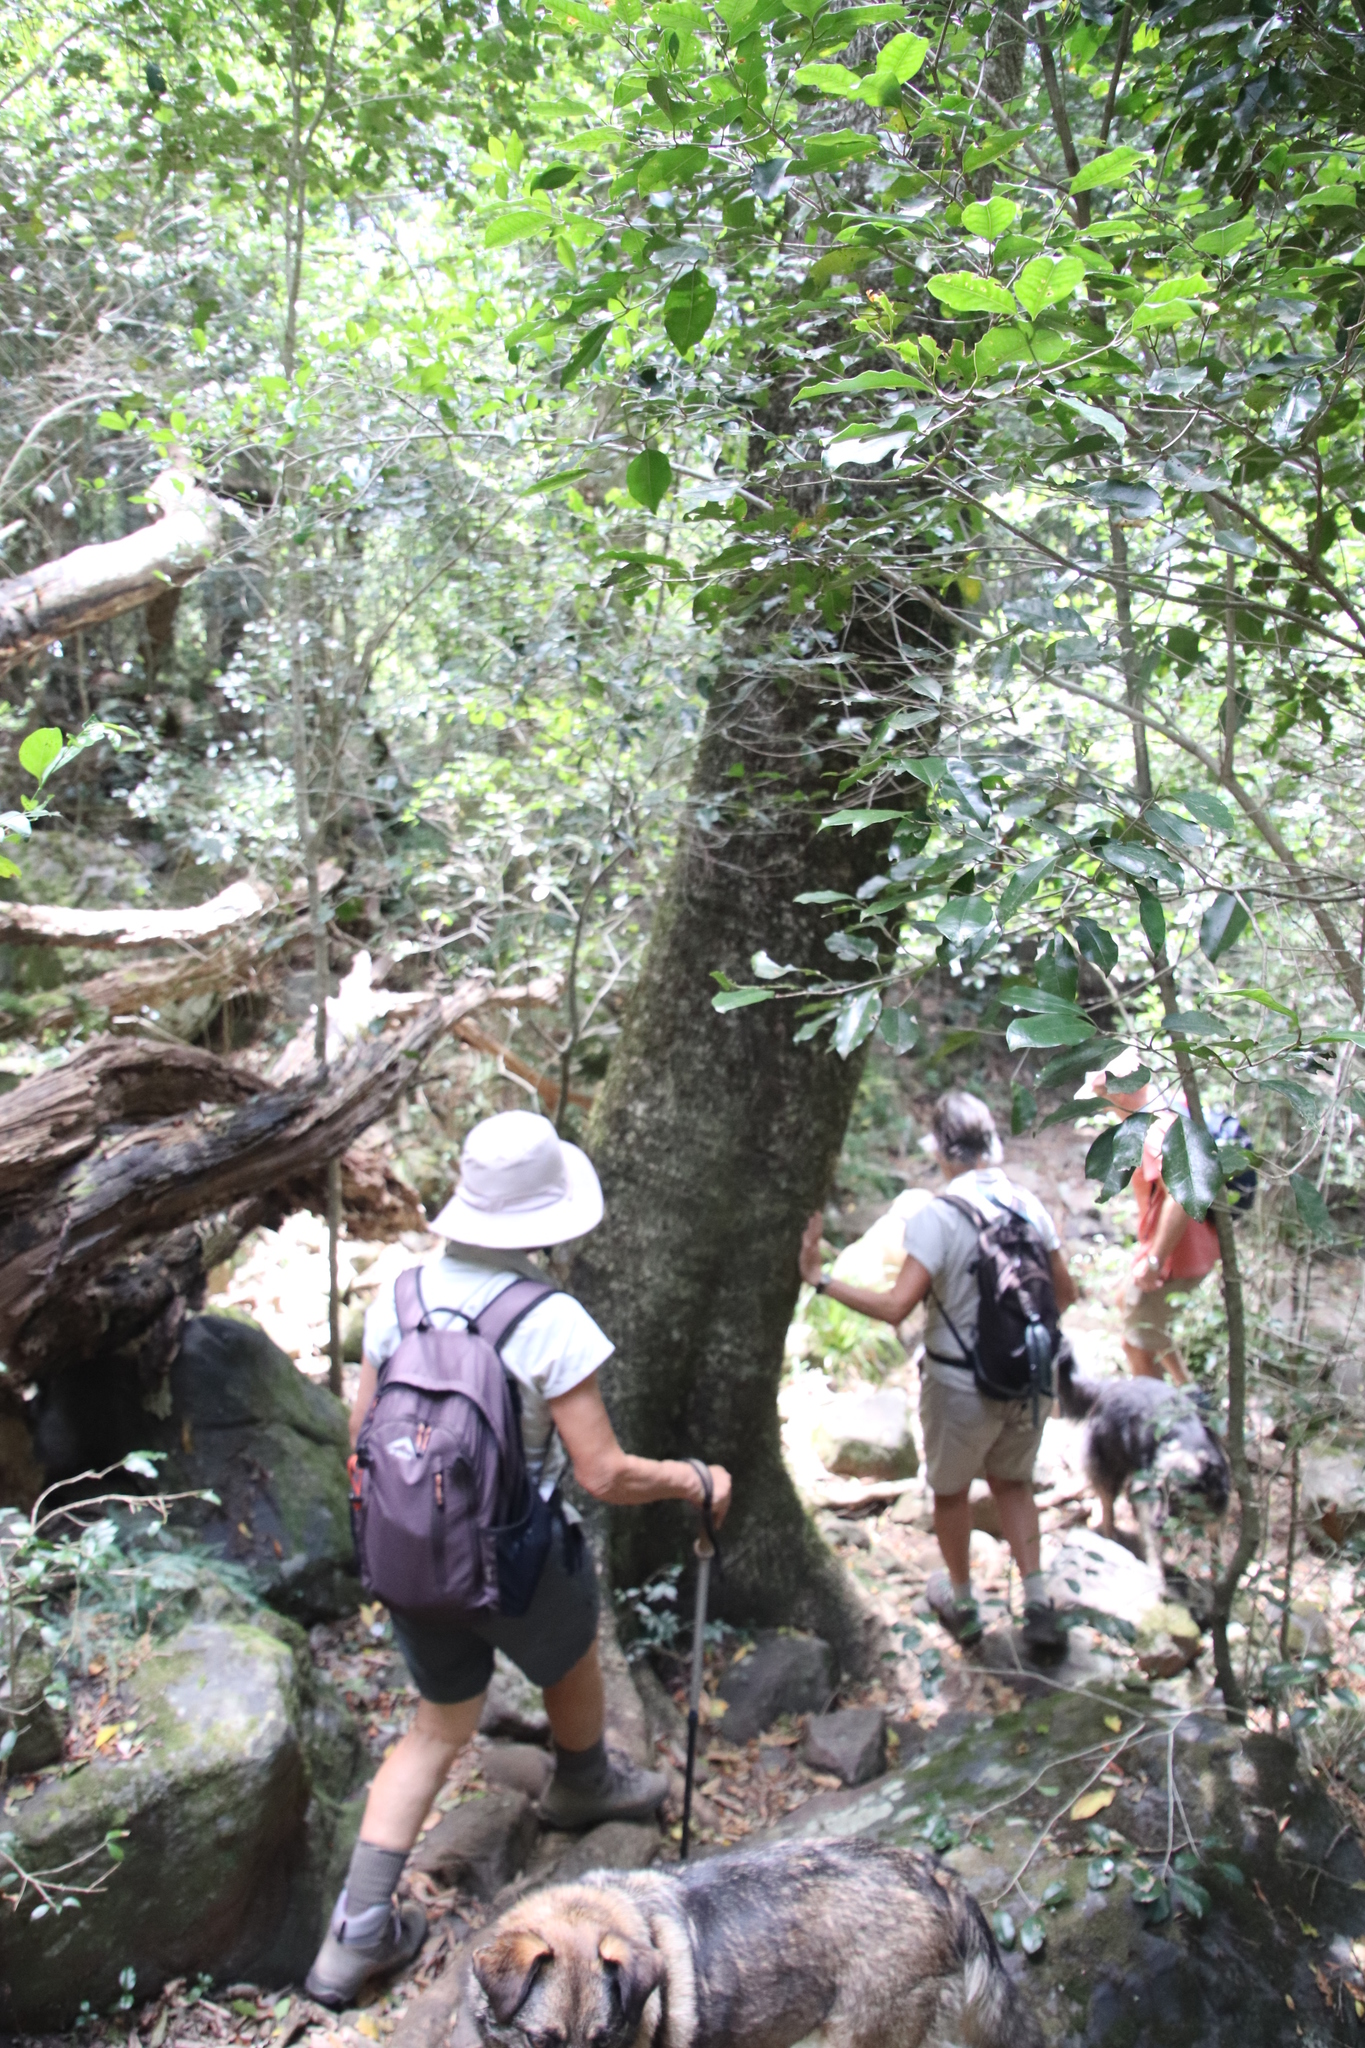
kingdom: Plantae
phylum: Tracheophyta
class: Magnoliopsida
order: Lamiales
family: Oleaceae
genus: Olea
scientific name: Olea capensis
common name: Black ironwood
